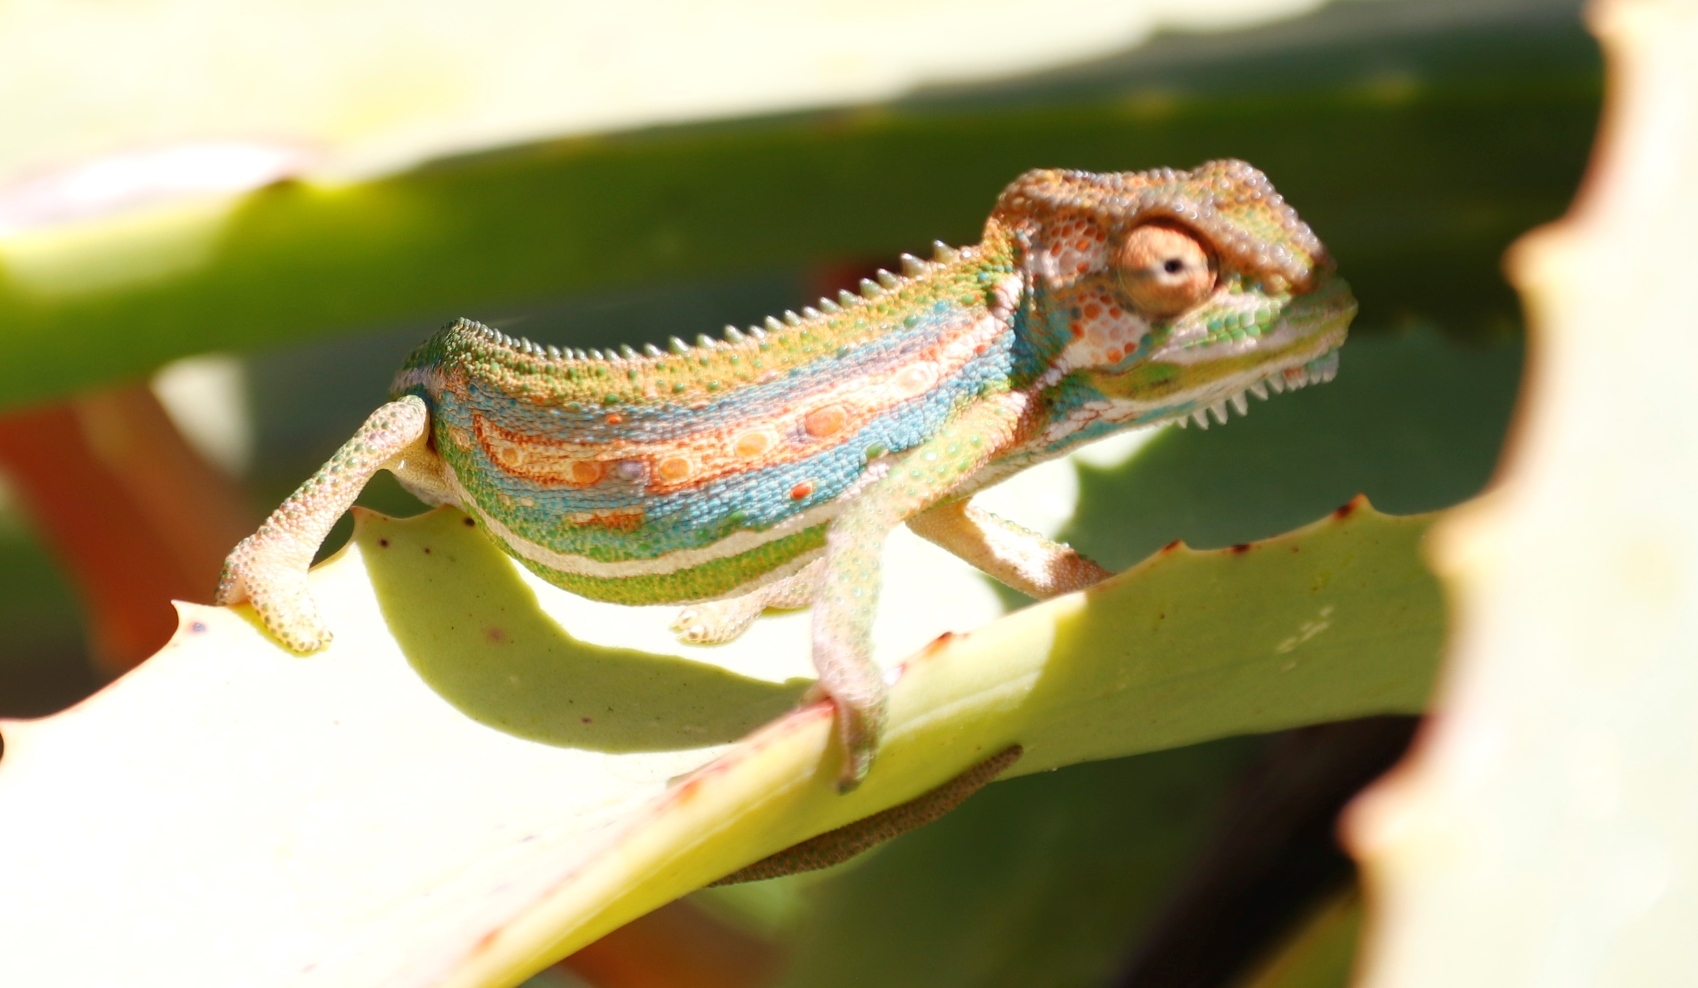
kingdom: Animalia
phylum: Chordata
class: Squamata
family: Chamaeleonidae
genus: Bradypodion
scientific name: Bradypodion pumilum
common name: Cape dwarf chameleon
